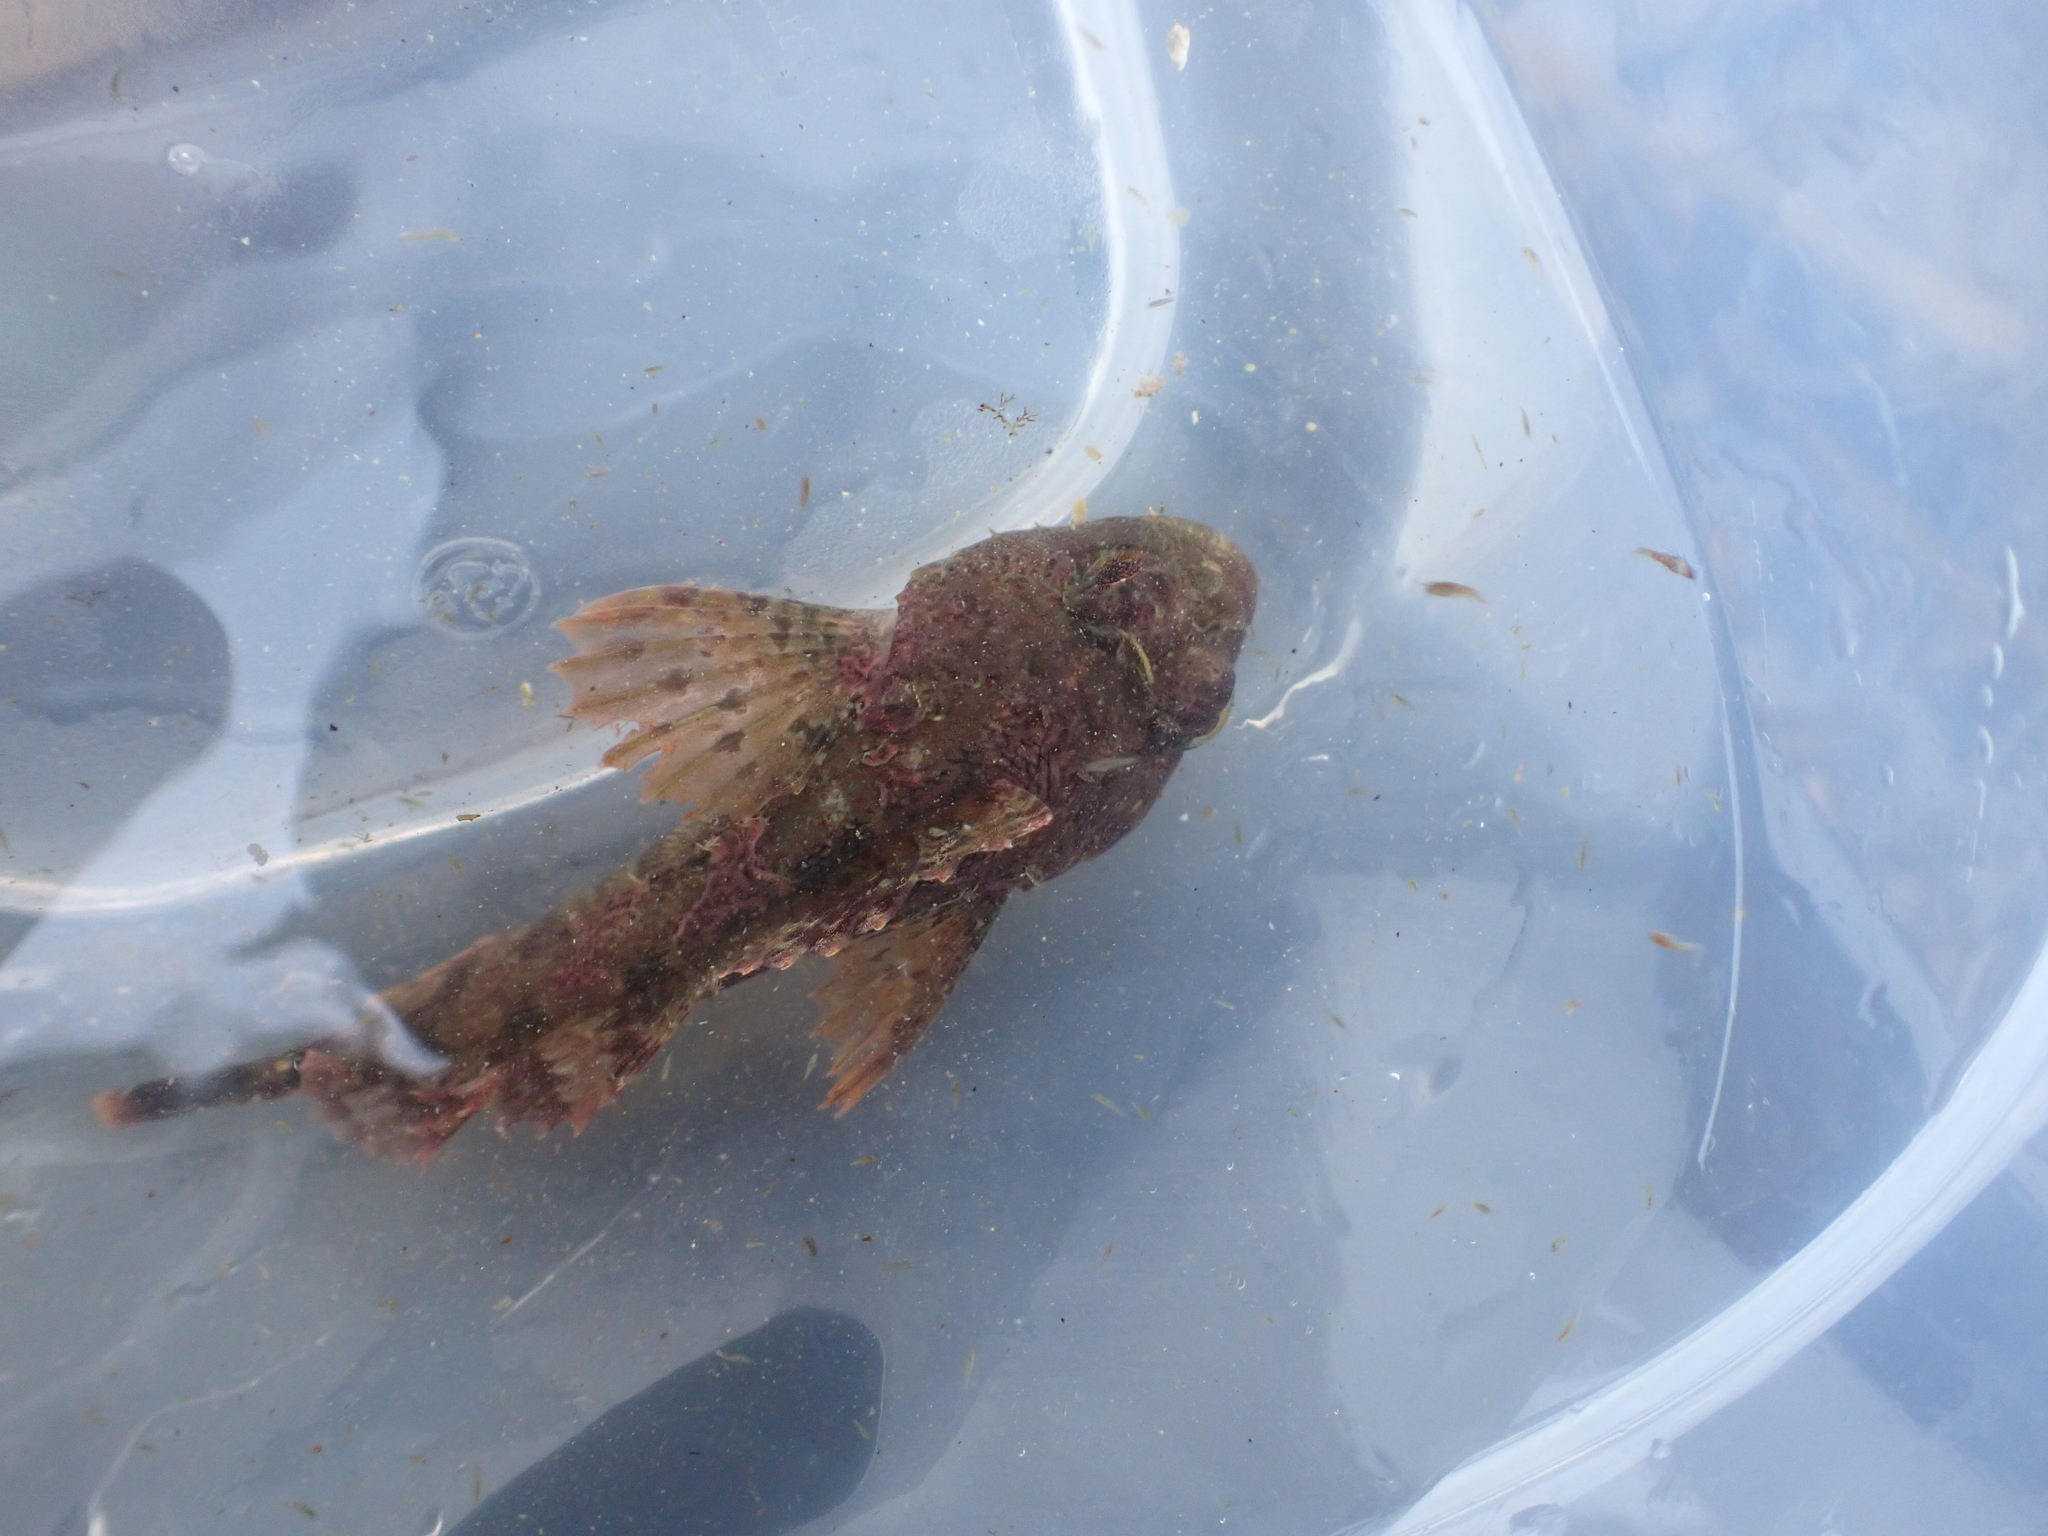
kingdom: Animalia
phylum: Chordata
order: Scorpaeniformes
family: Cottidae
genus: Hemilepidotus
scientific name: Hemilepidotus hemilepidotus
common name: Red irish lord
